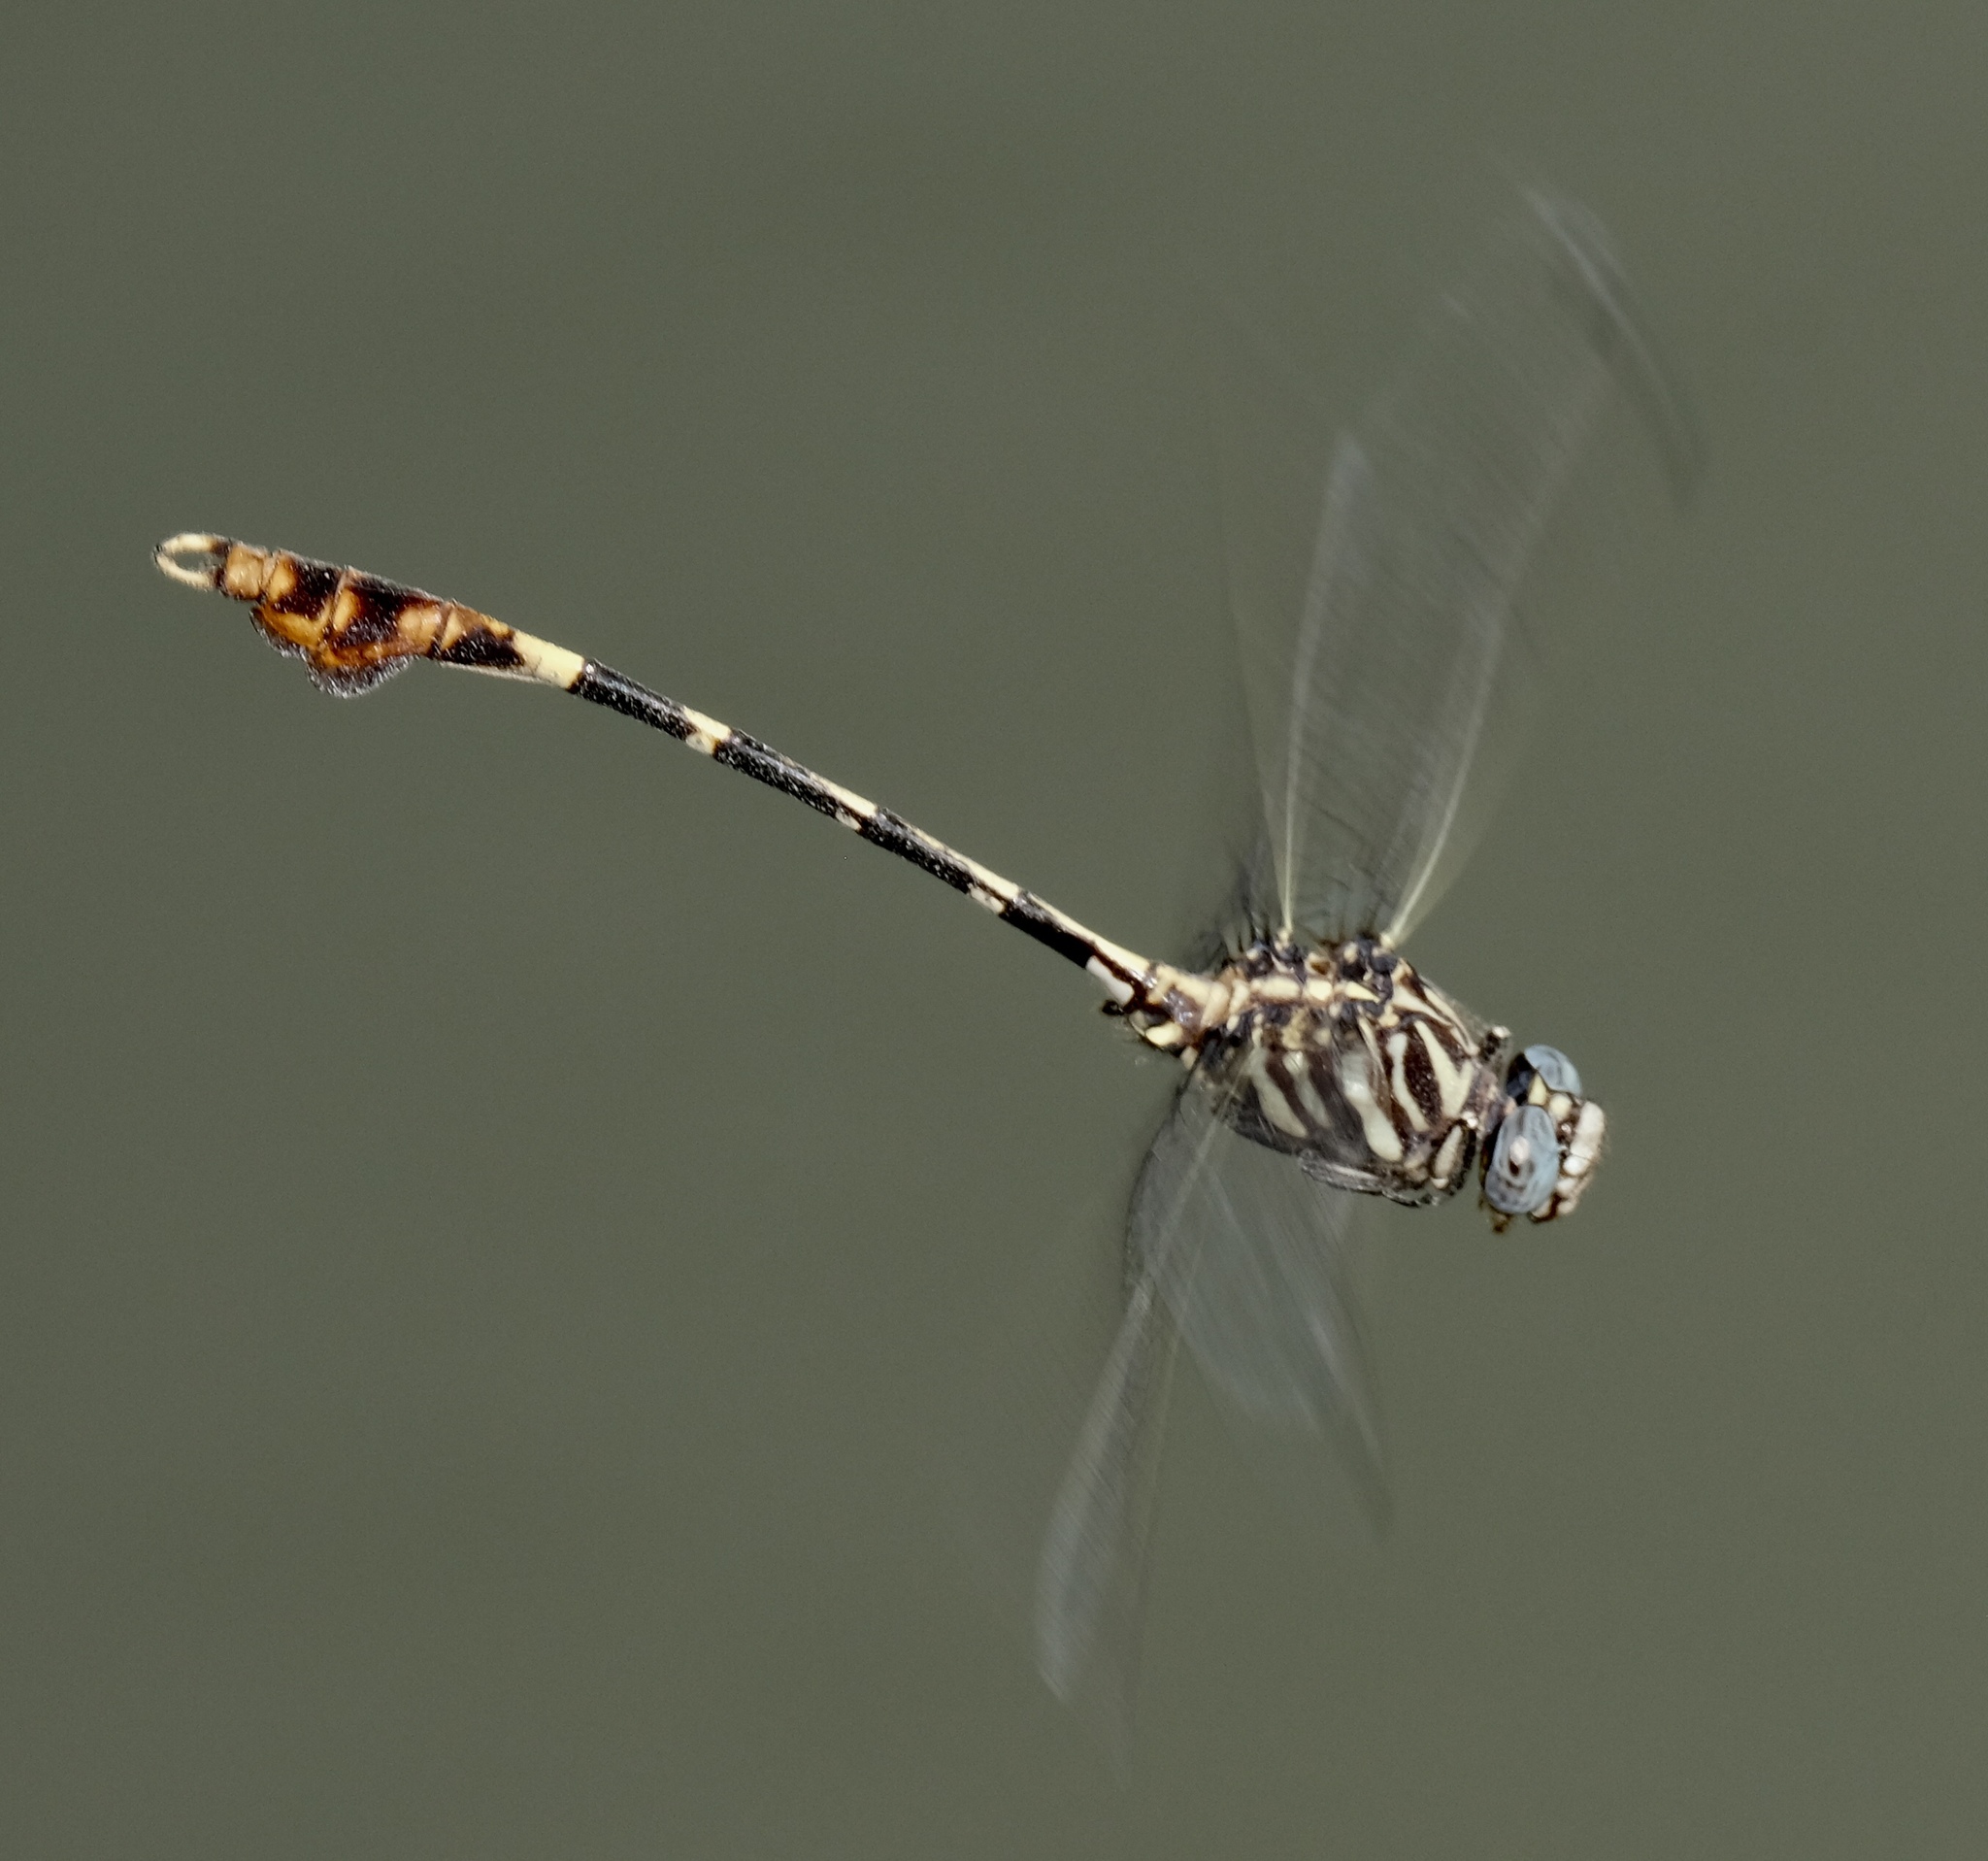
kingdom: Animalia
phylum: Arthropoda
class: Insecta
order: Odonata
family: Gomphidae
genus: Phyllogomphoides
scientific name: Phyllogomphoides albrighti
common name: Five-striped leaftail
